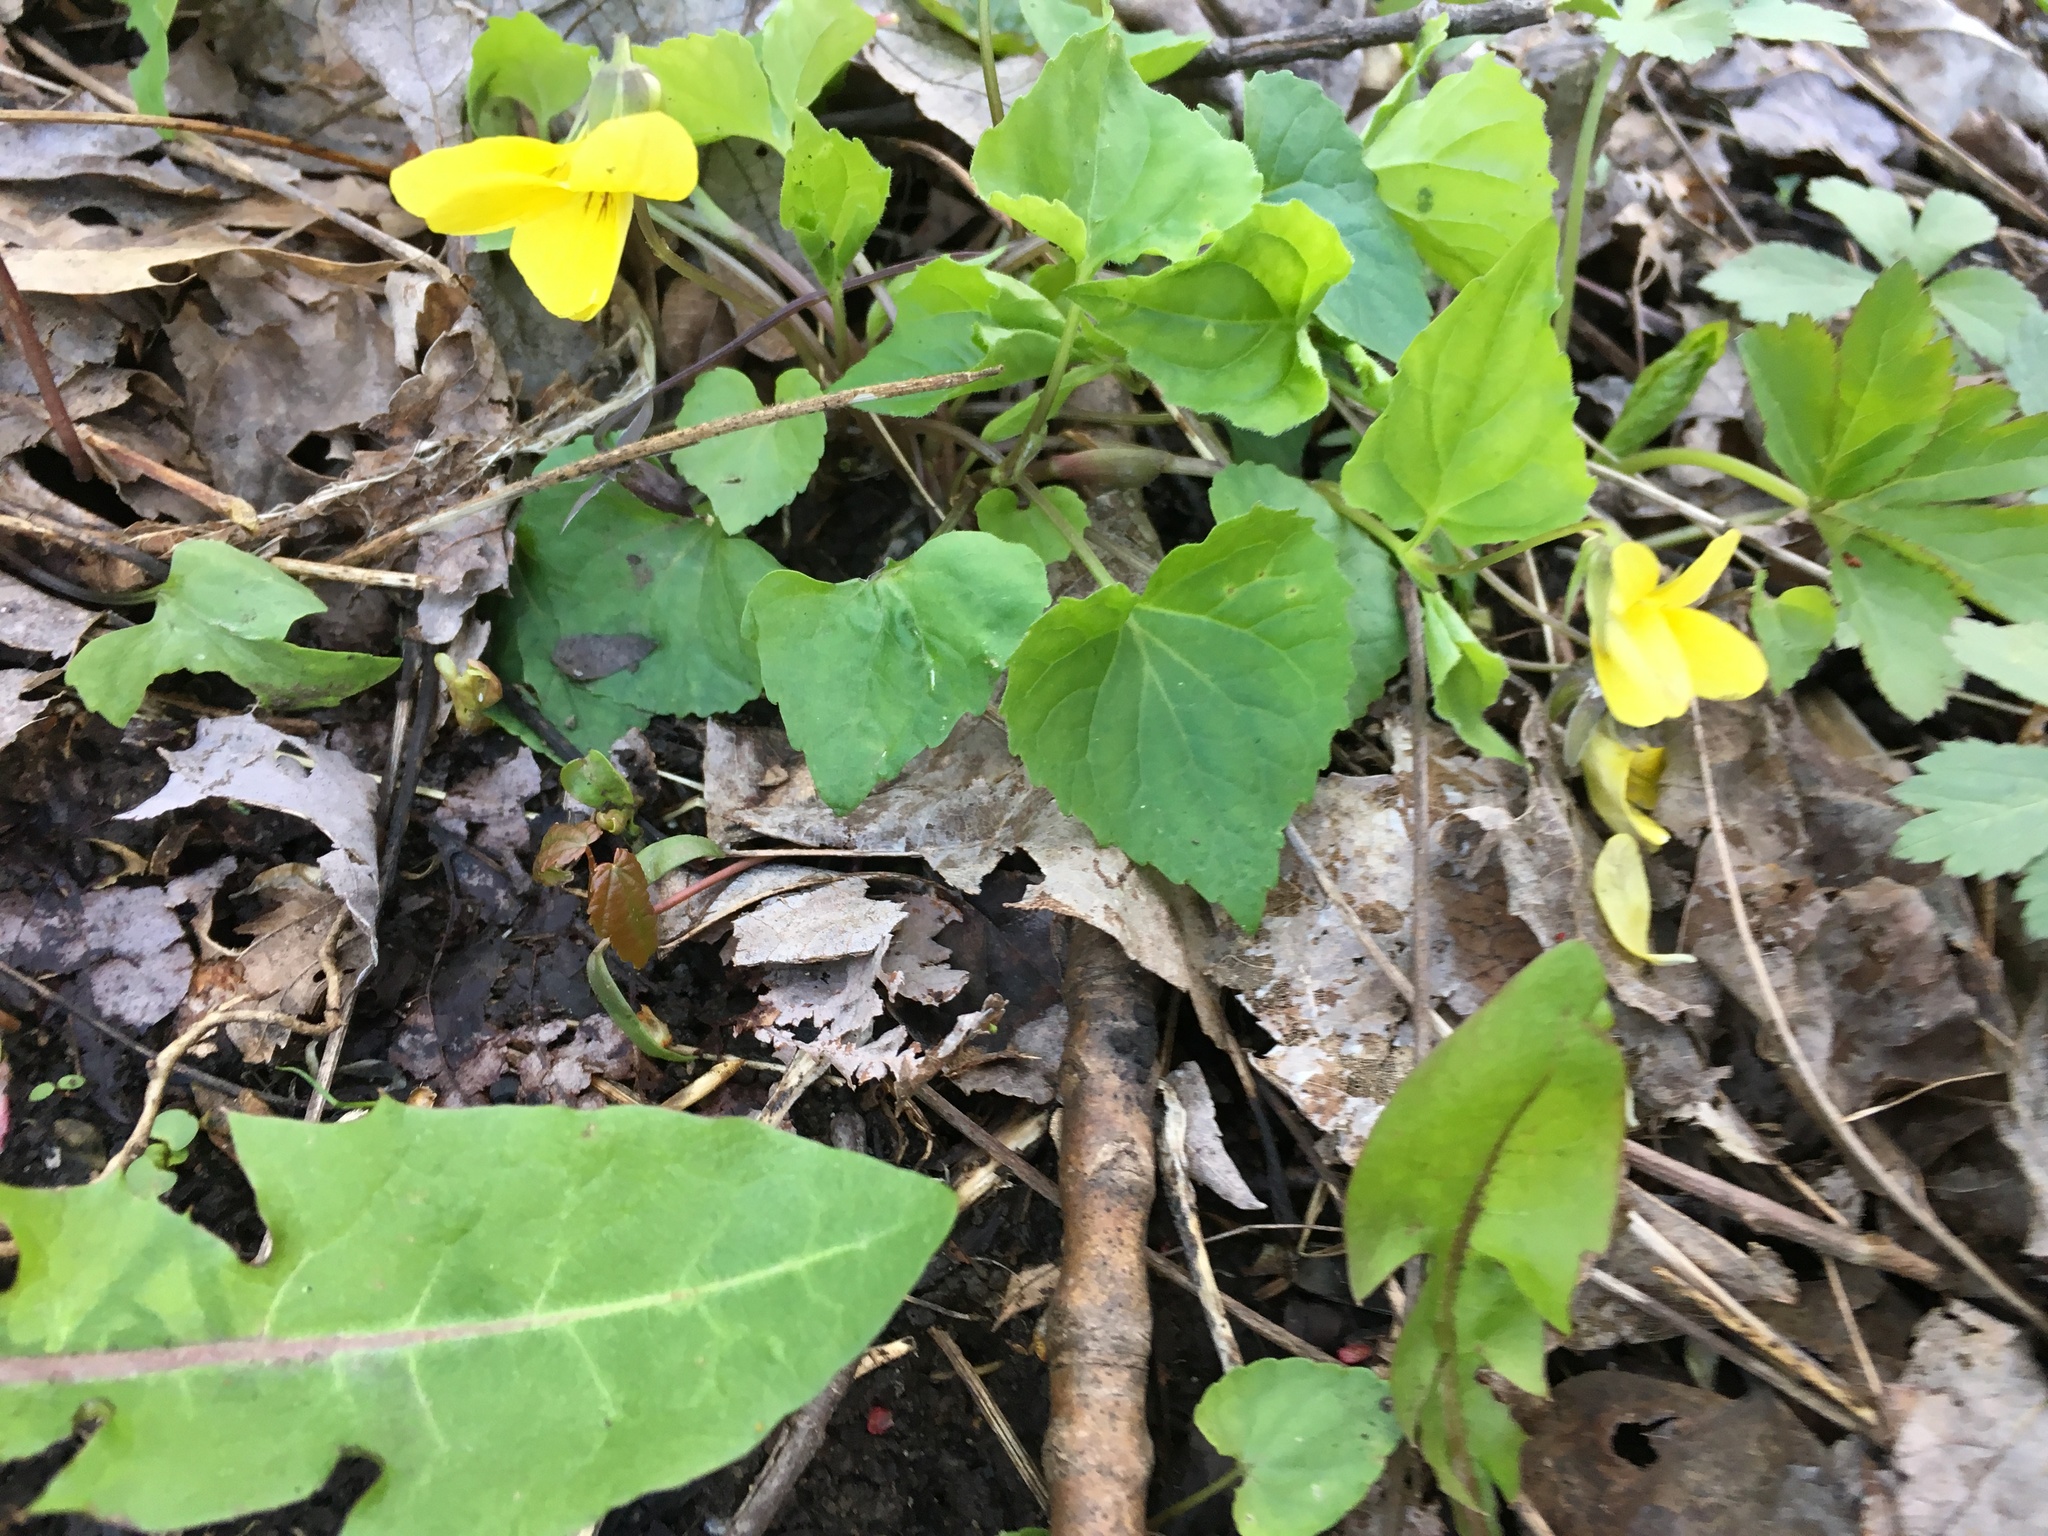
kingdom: Plantae
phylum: Tracheophyta
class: Magnoliopsida
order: Malpighiales
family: Violaceae
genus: Viola
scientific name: Viola eriocarpa
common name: Smooth yellow violet
